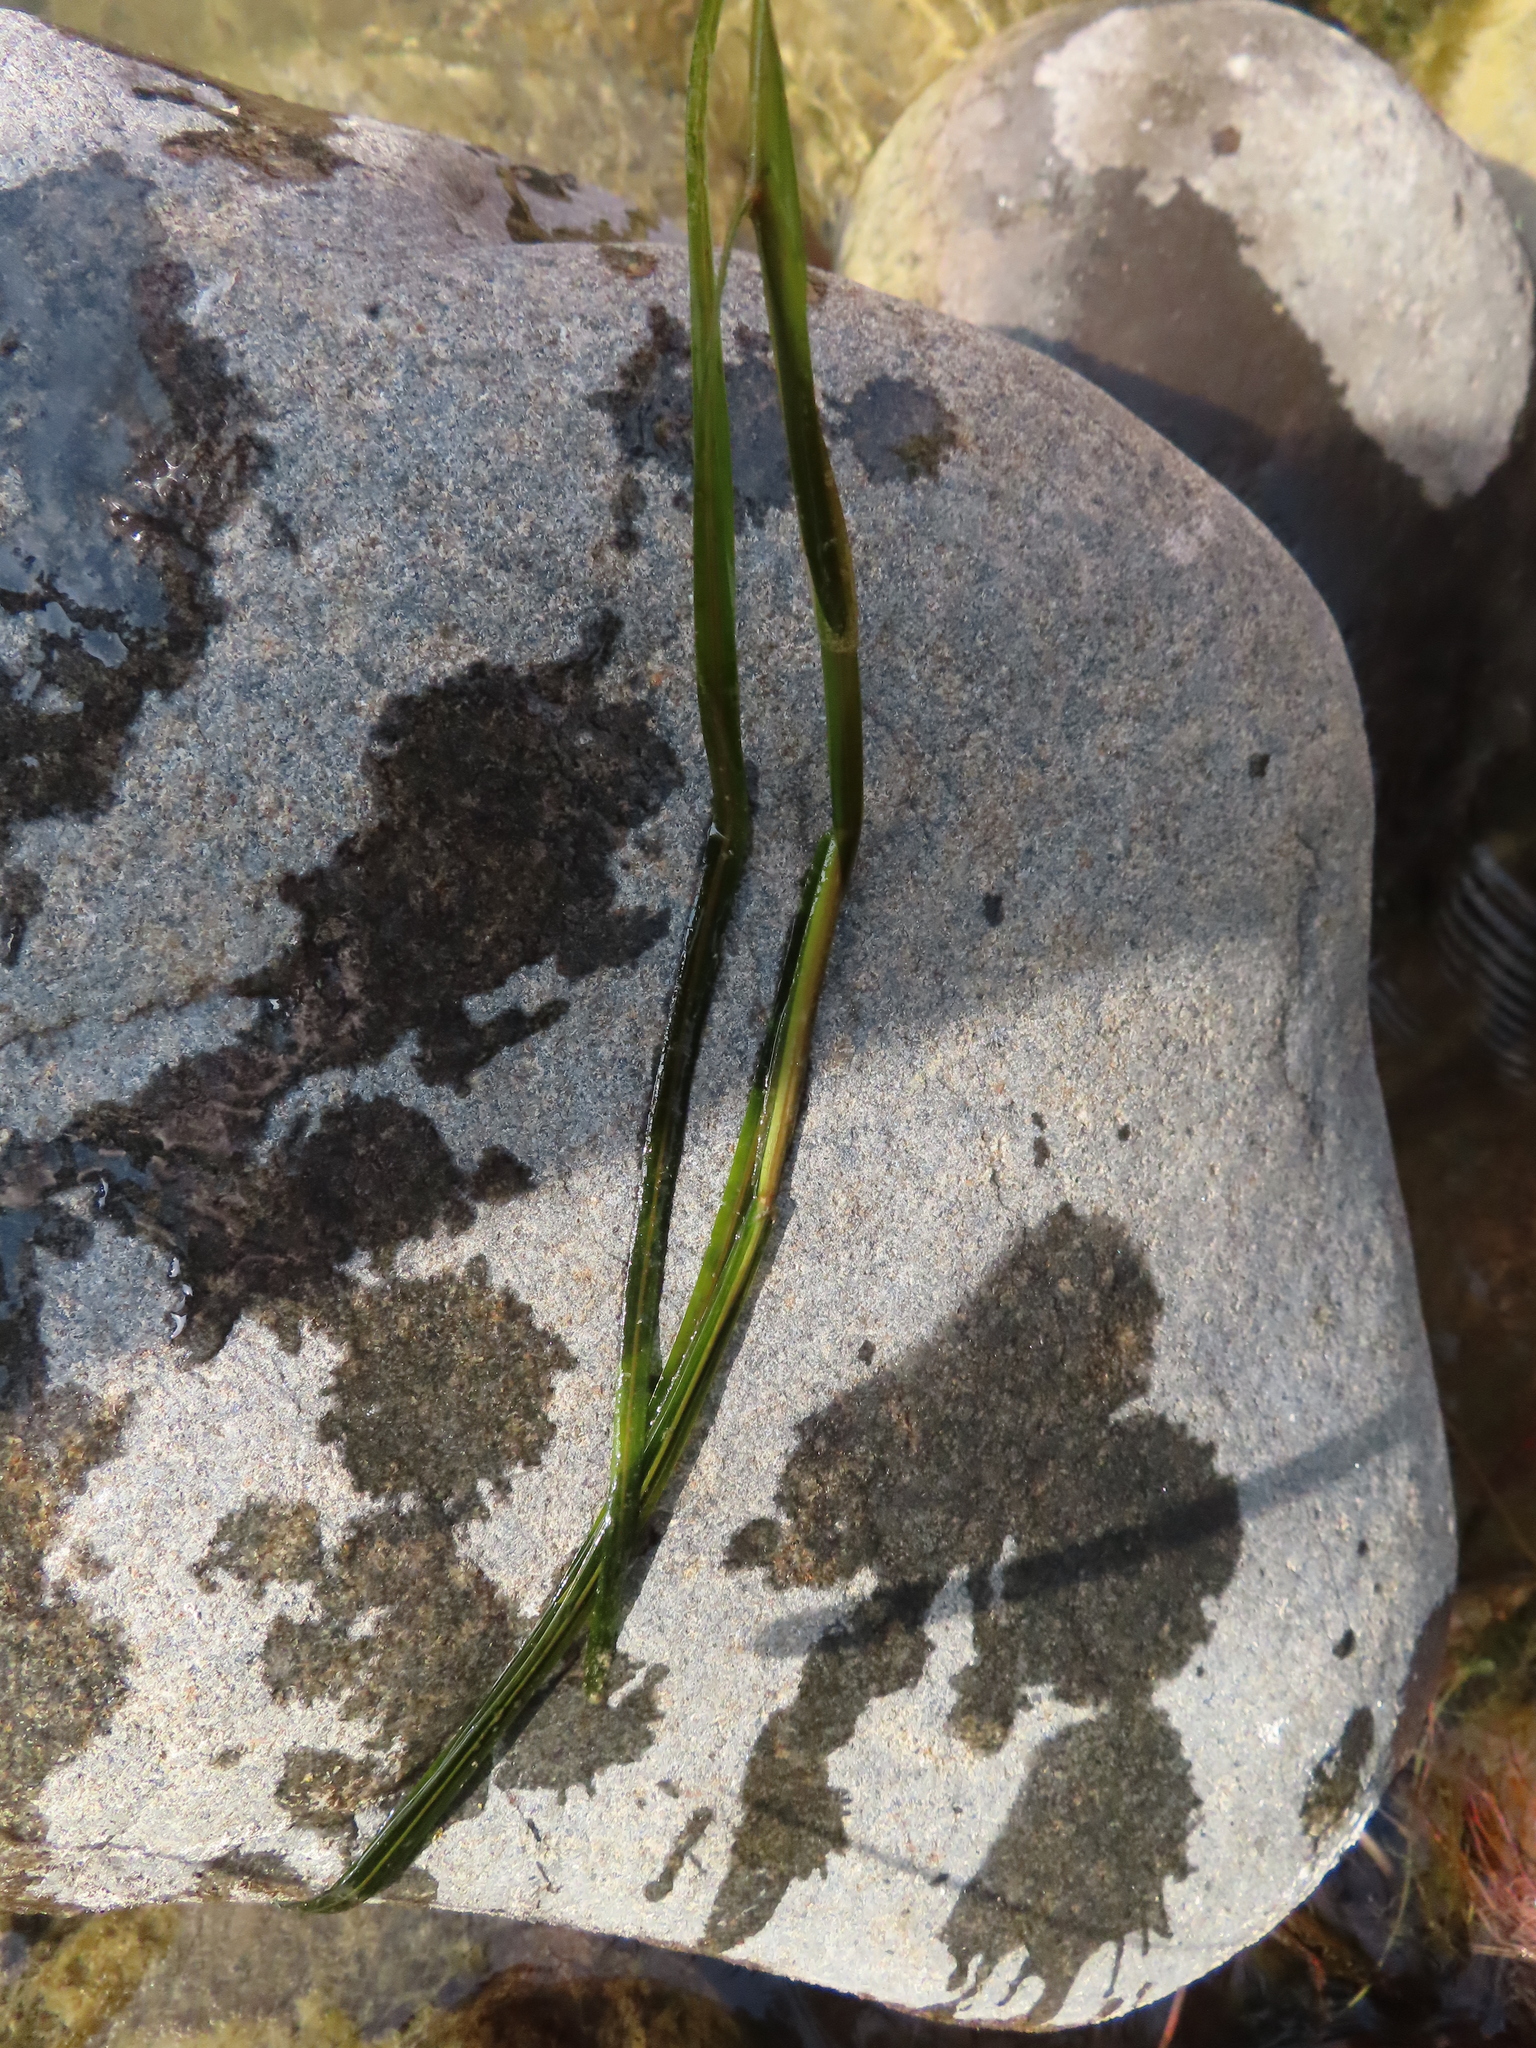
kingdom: Plantae
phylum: Tracheophyta
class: Liliopsida
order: Alismatales
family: Potamogetonaceae
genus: Potamogeton
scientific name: Potamogeton zosteriformis
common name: Eelgrass pondweed
